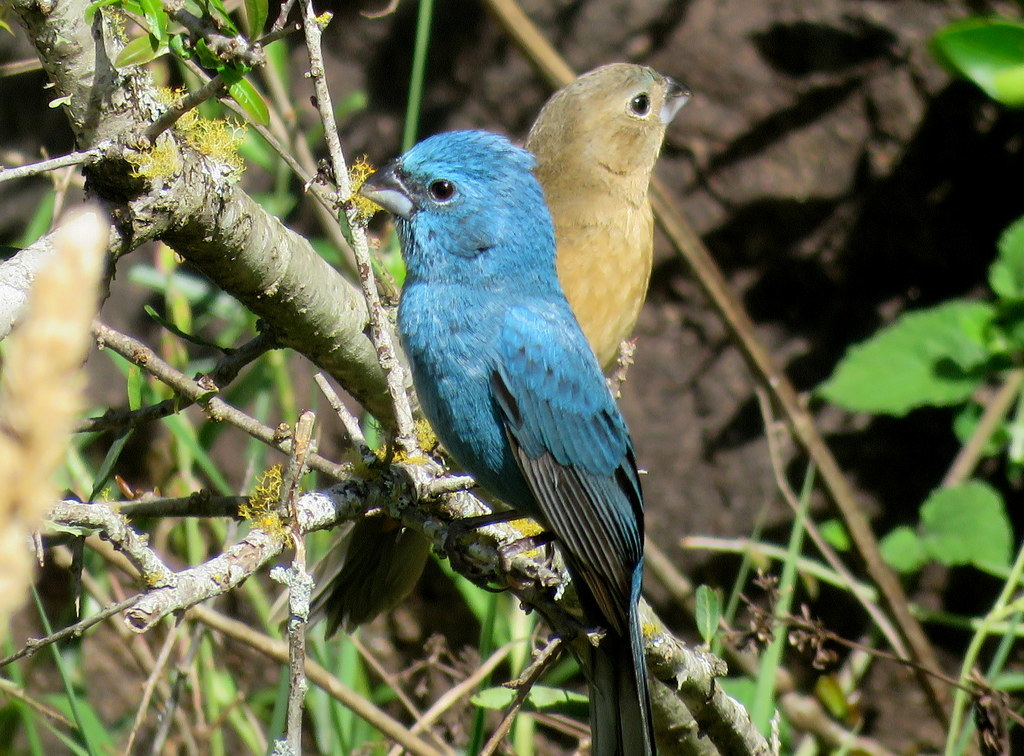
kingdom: Animalia
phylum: Chordata
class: Aves
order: Passeriformes
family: Cardinalidae
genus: Cyanoloxia
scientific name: Cyanoloxia glaucocaerulea
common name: Glaucous-blue grosbeak
